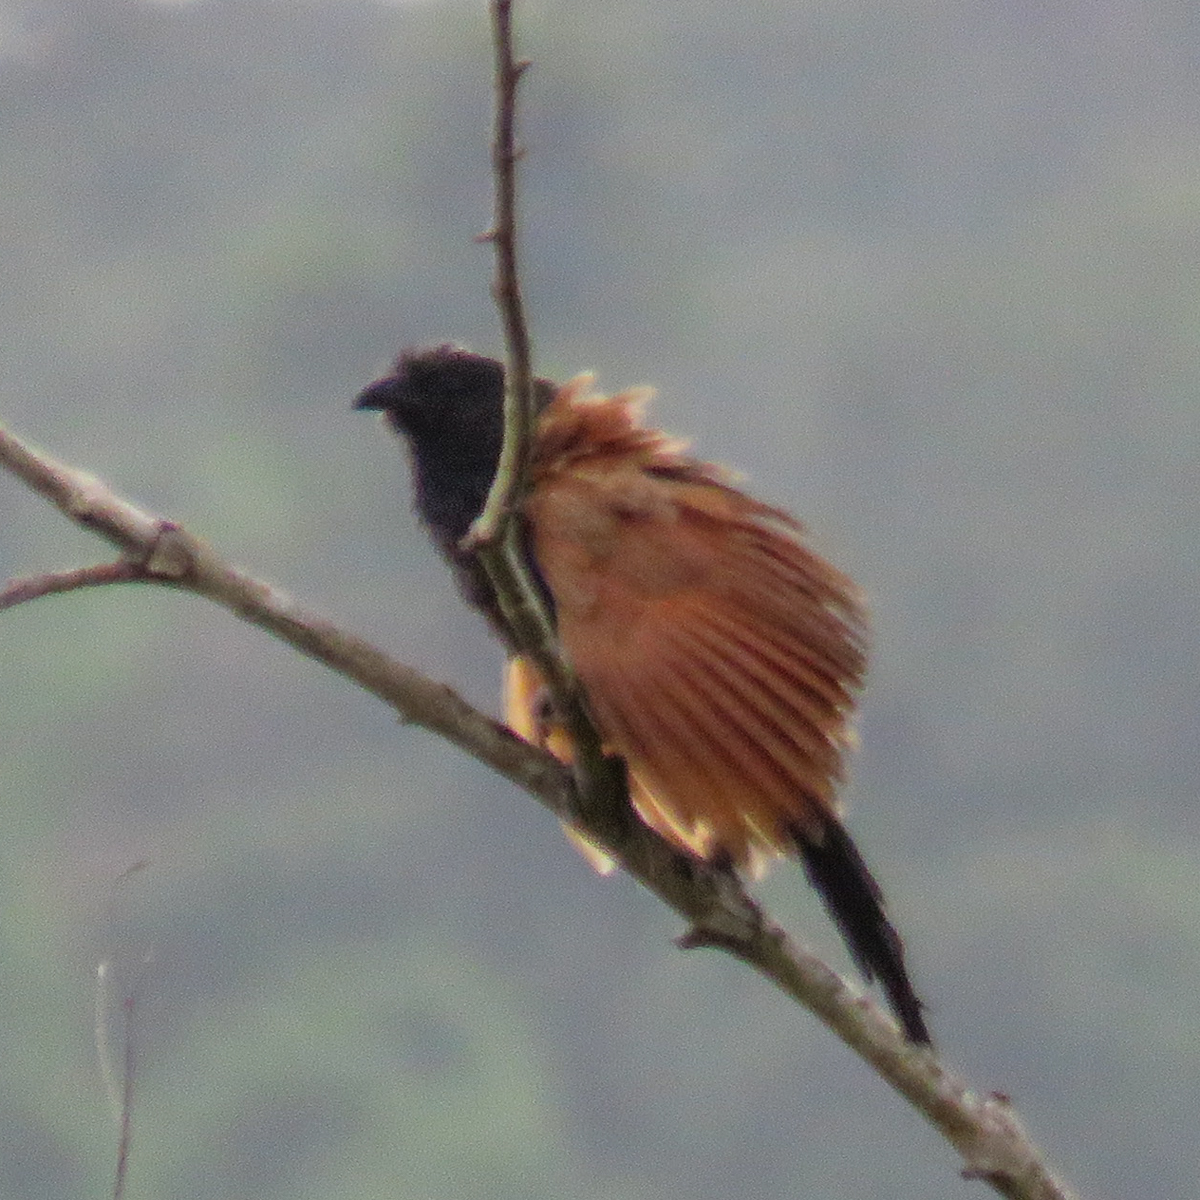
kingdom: Animalia
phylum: Chordata
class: Aves
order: Cuculiformes
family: Cuculidae
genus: Centropus
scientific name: Centropus sinensis
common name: Greater coucal
